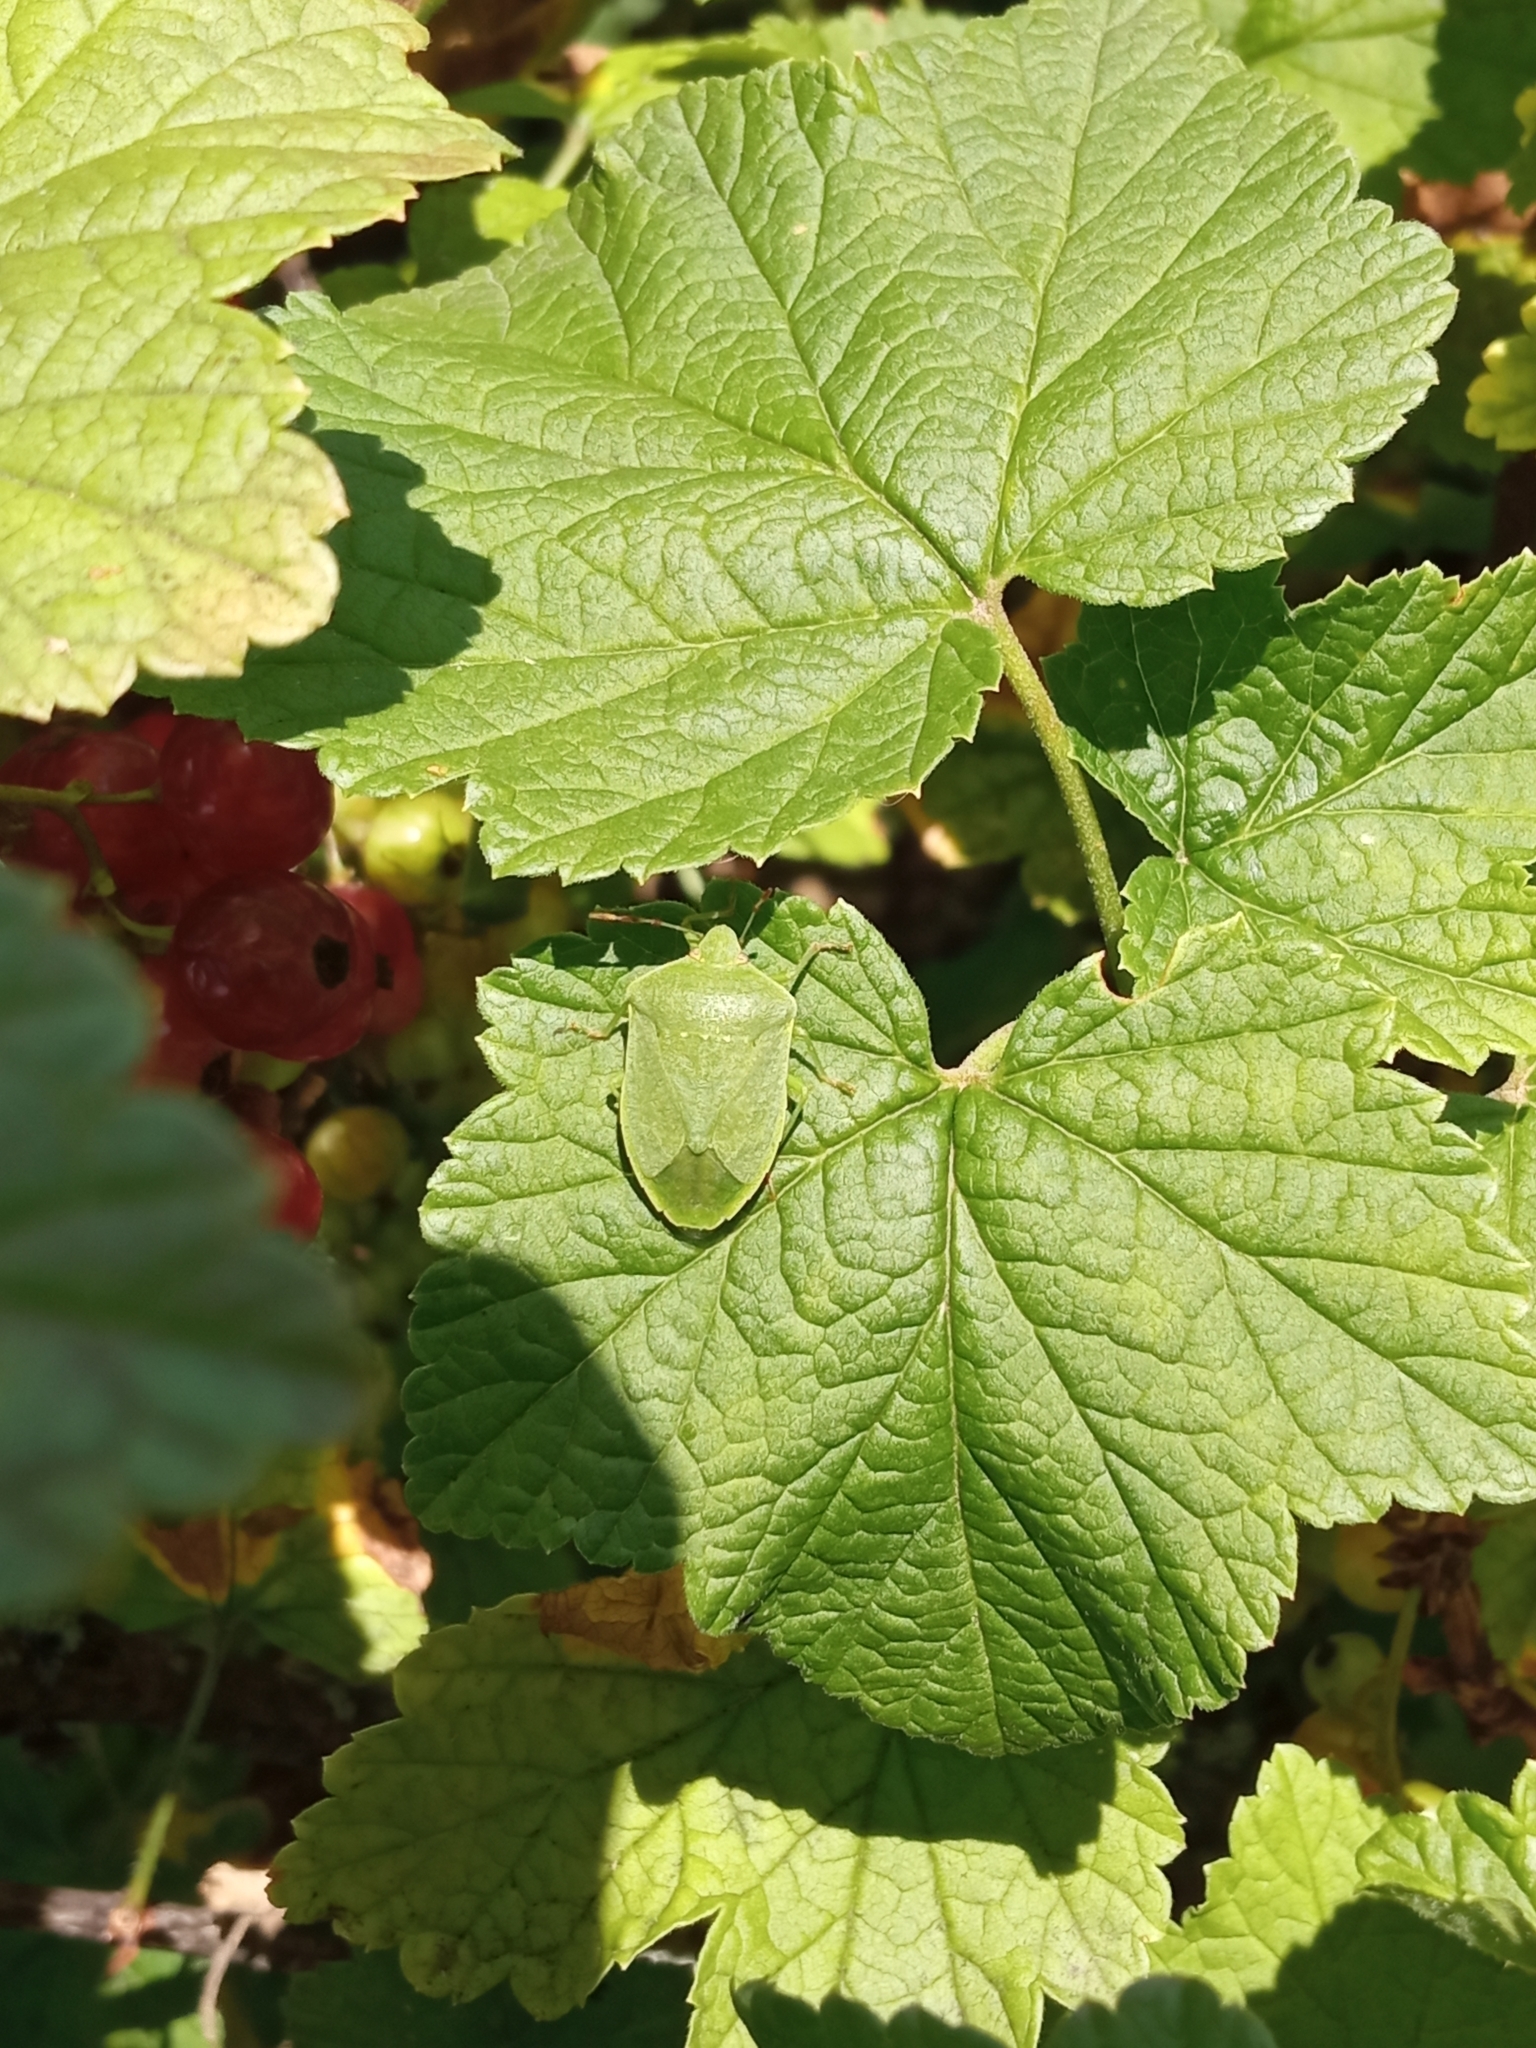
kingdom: Animalia
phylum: Arthropoda
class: Insecta
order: Hemiptera
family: Pentatomidae
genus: Nezara
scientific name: Nezara viridula
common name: Southern green stink bug
